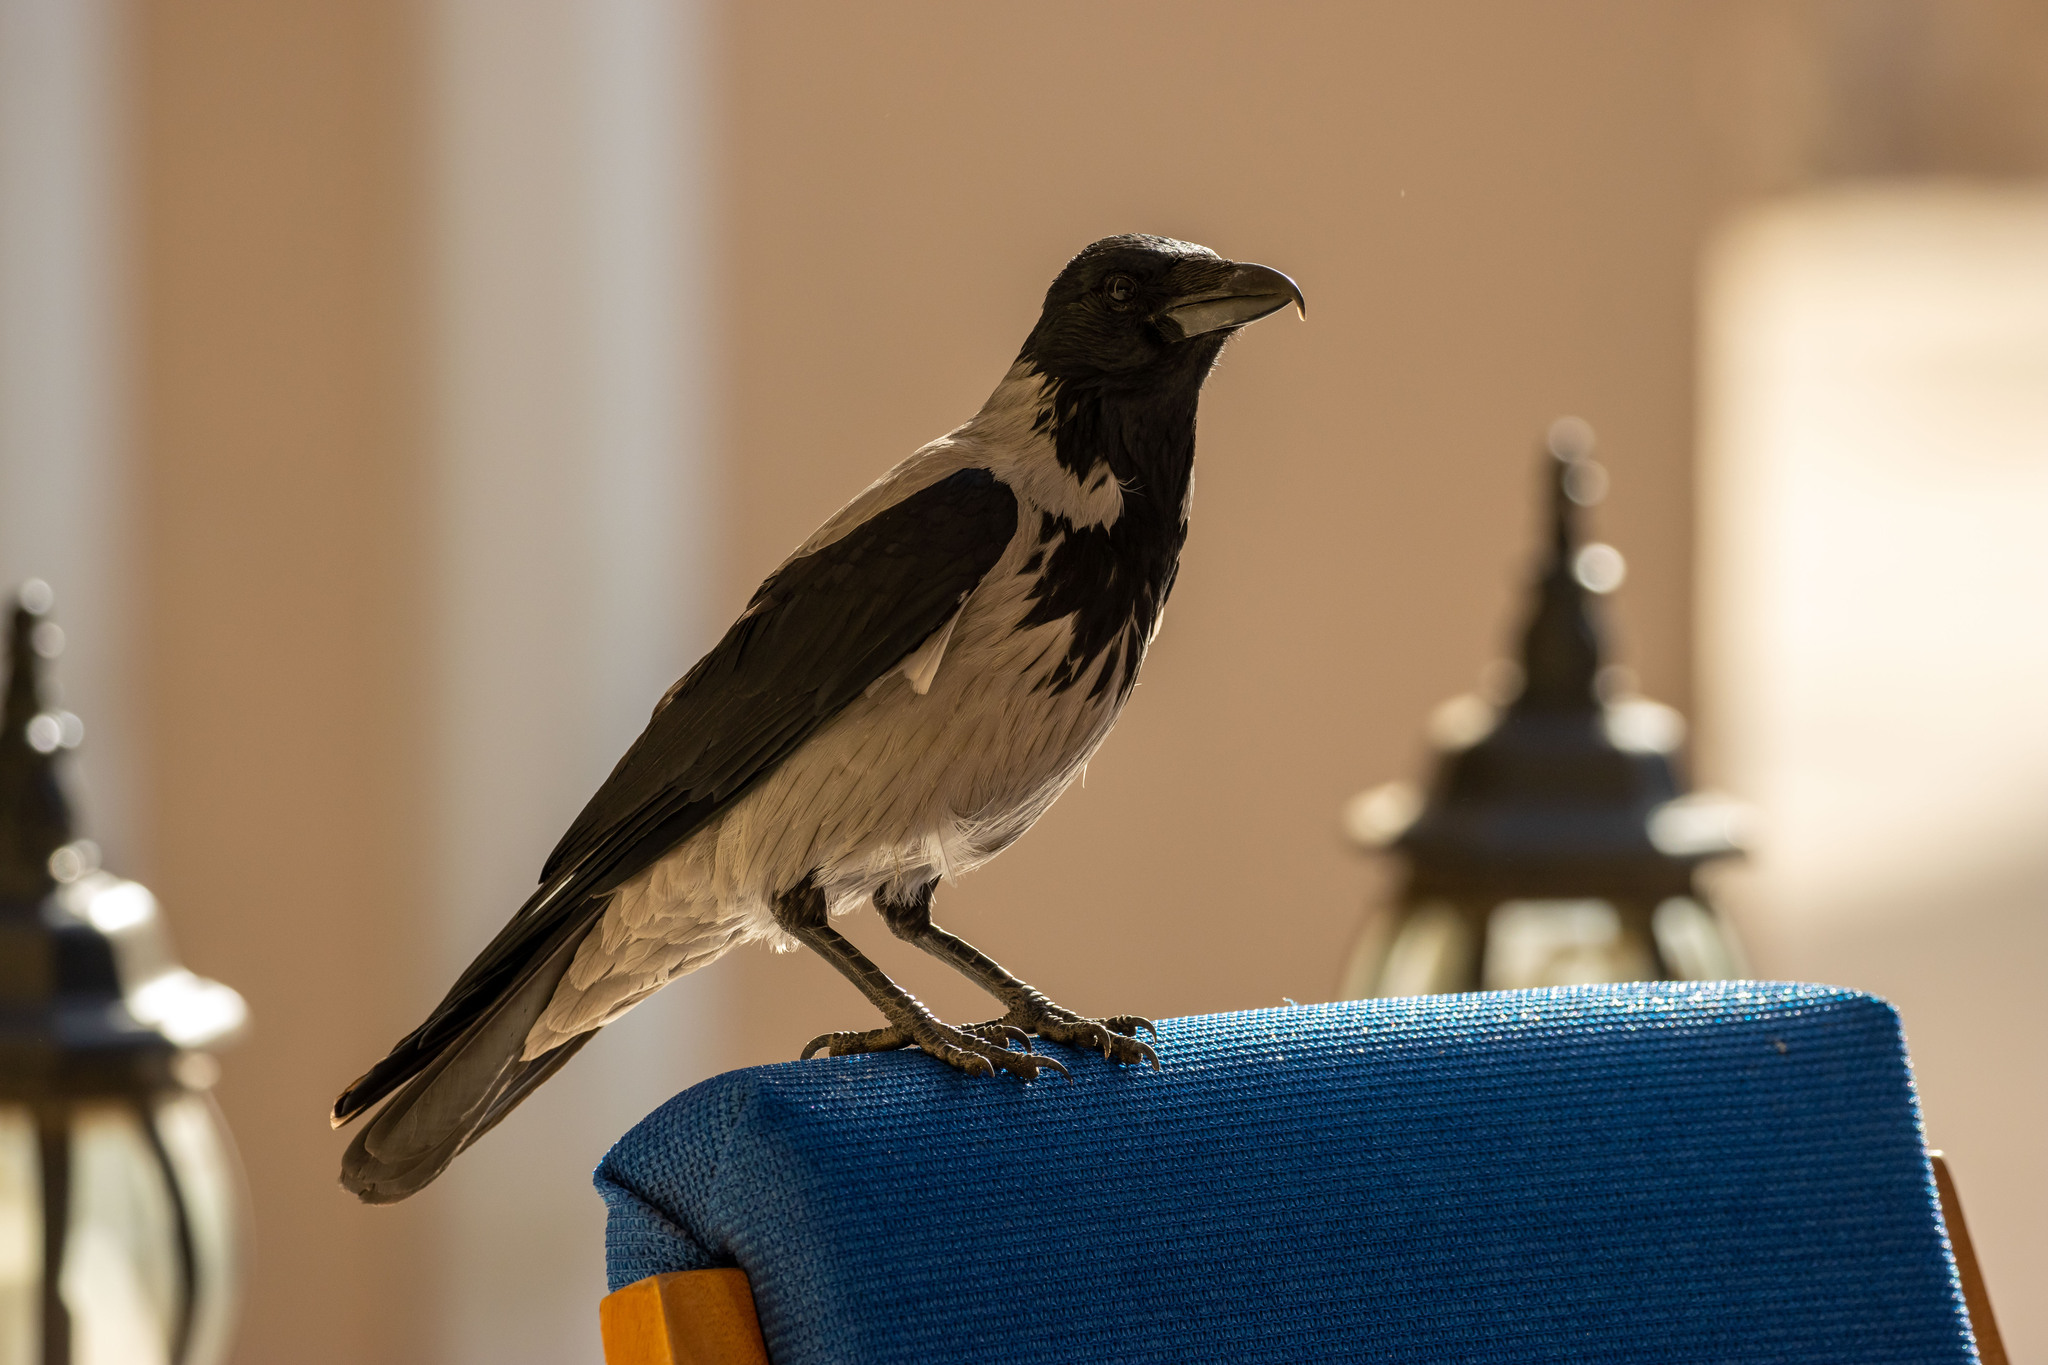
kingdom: Animalia
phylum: Chordata
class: Aves
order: Passeriformes
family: Corvidae
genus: Corvus
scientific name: Corvus cornix
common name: Hooded crow
